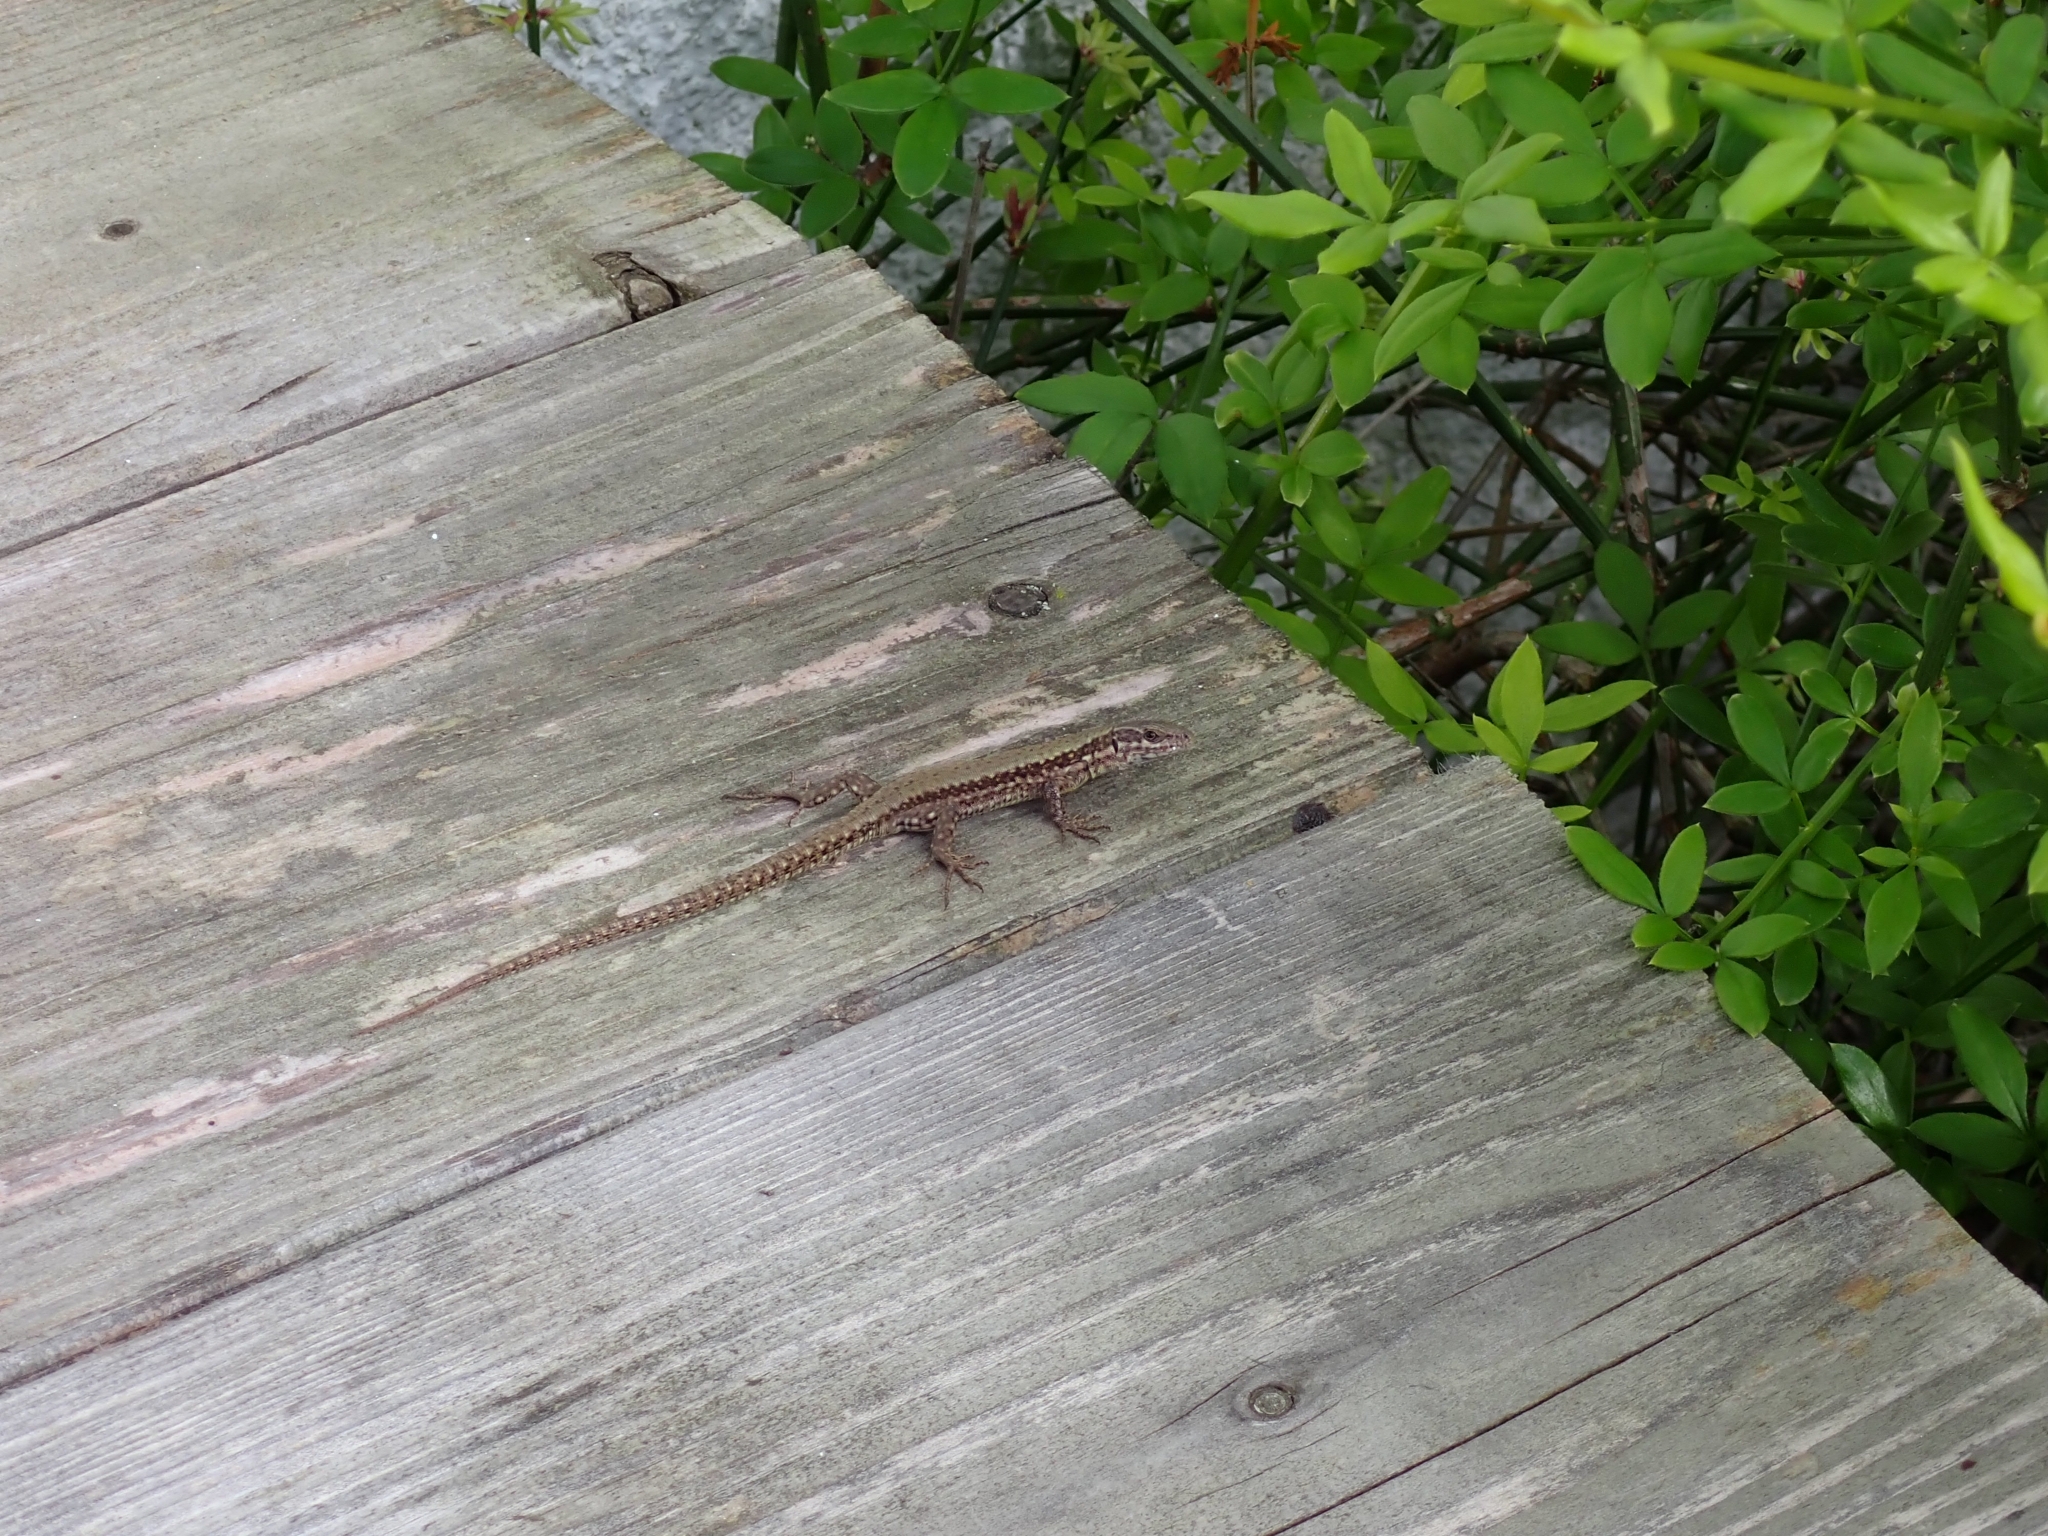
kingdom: Animalia
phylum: Chordata
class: Squamata
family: Lacertidae
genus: Podarcis
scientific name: Podarcis muralis
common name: Common wall lizard
